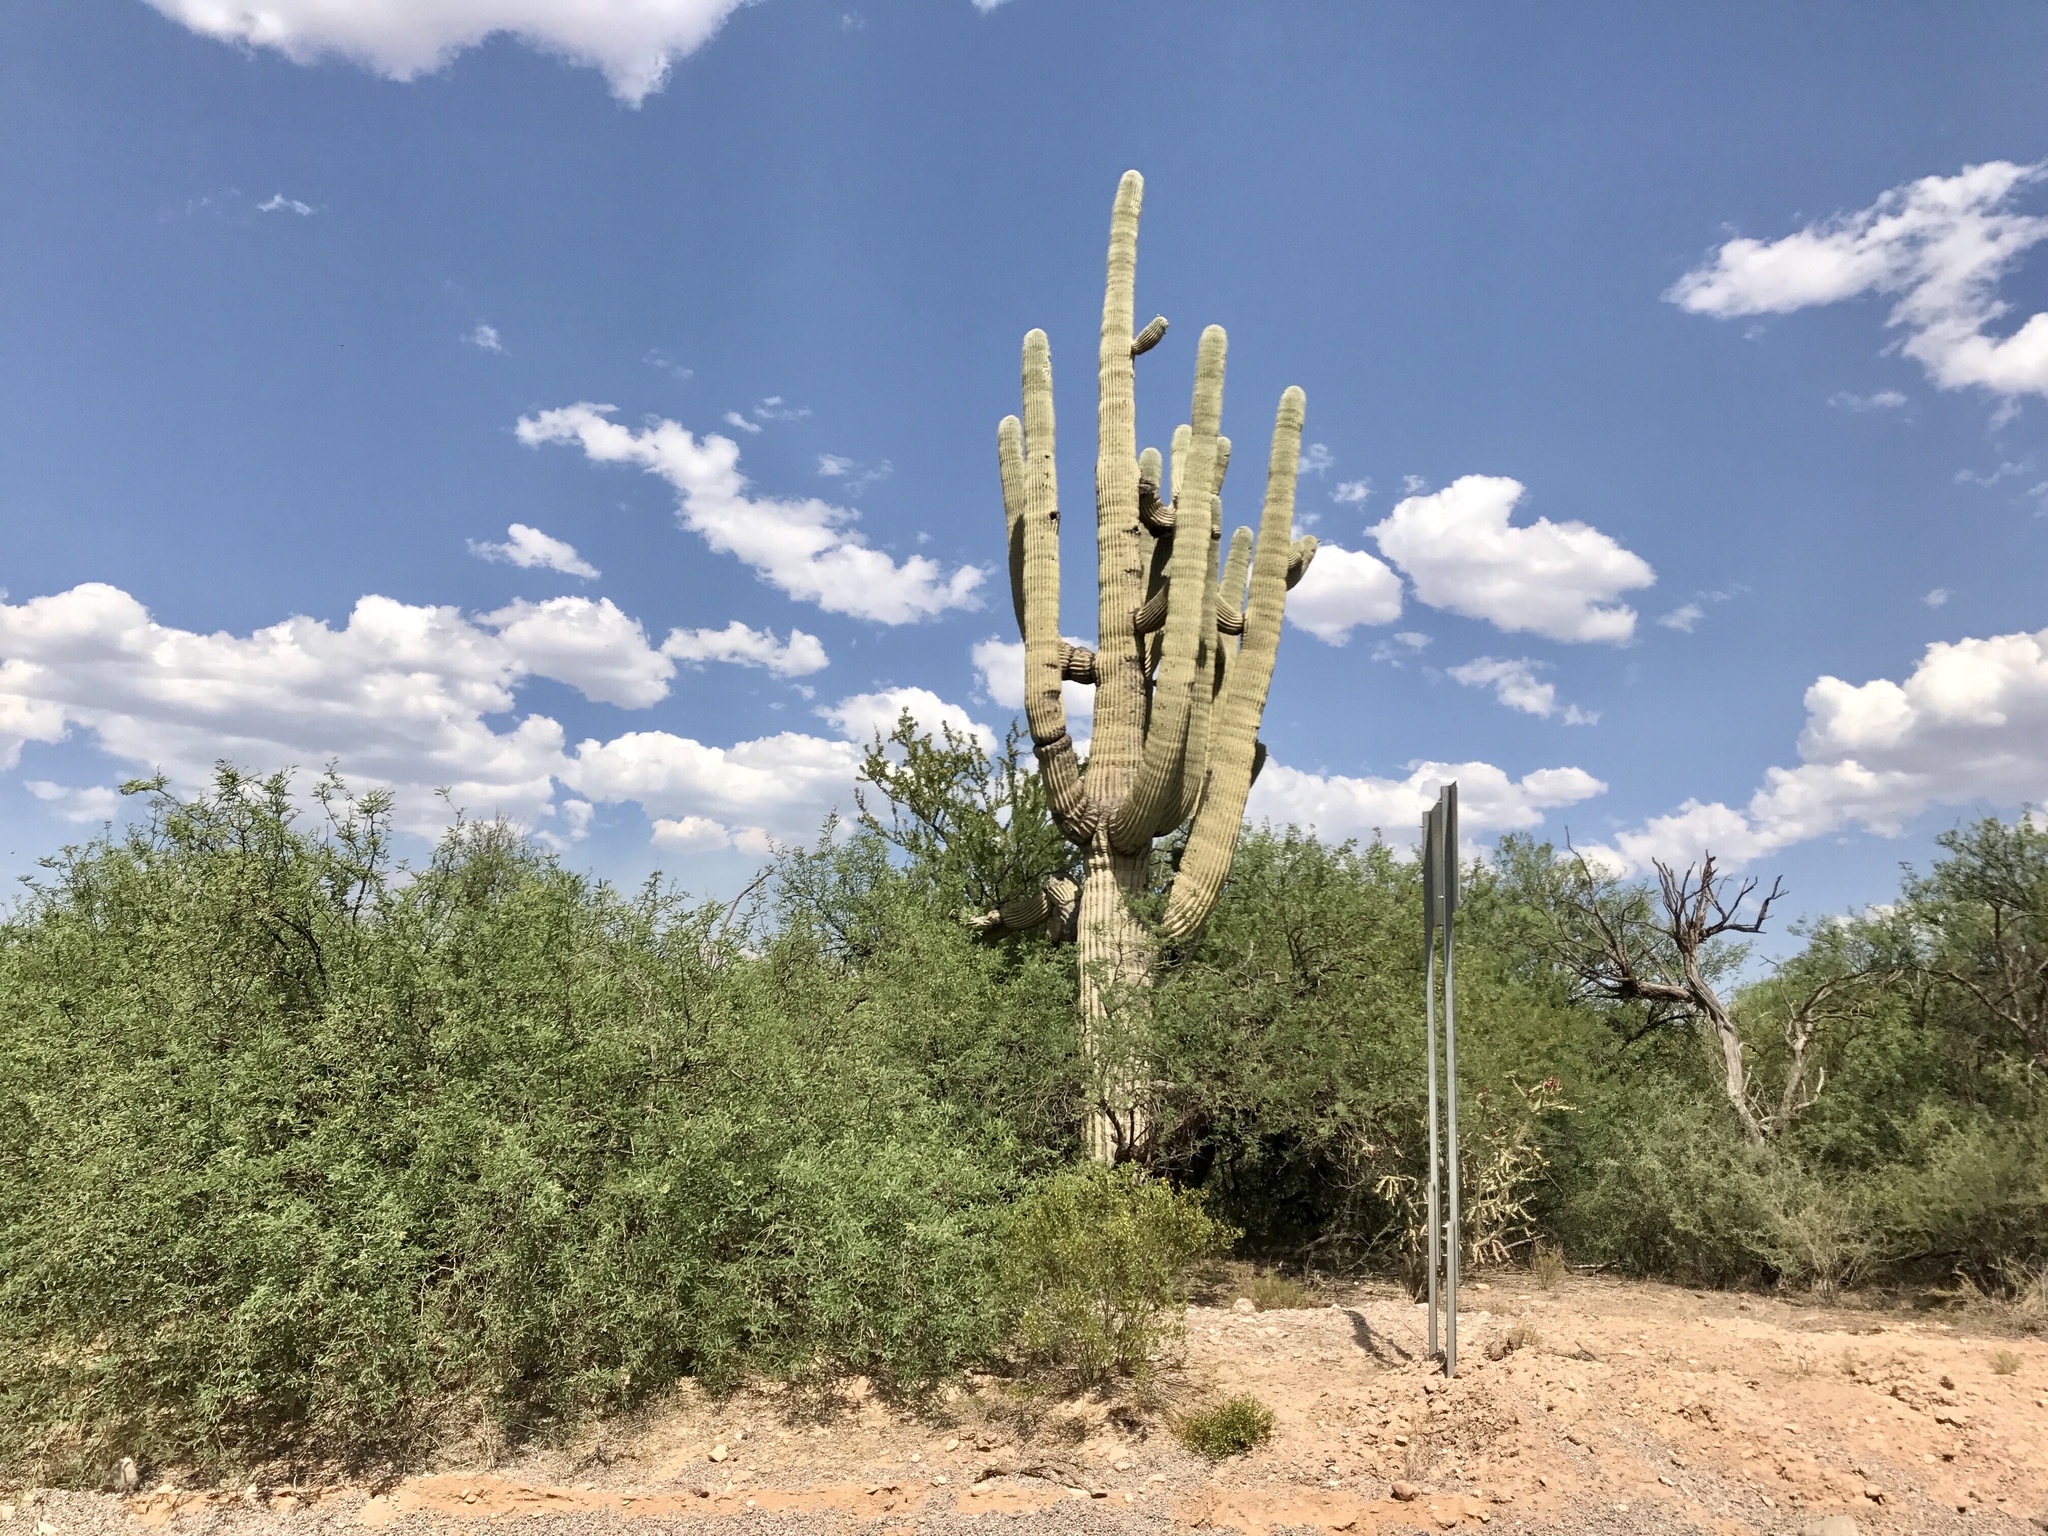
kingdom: Plantae
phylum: Tracheophyta
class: Magnoliopsida
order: Caryophyllales
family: Cactaceae
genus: Carnegiea
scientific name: Carnegiea gigantea
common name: Saguaro
